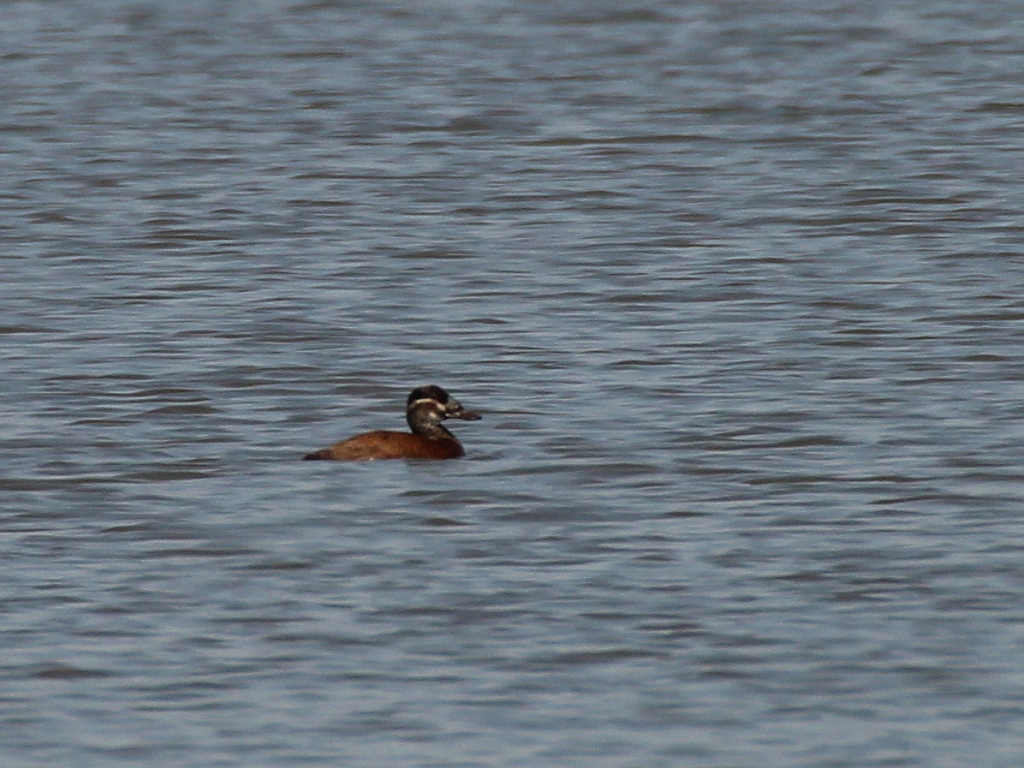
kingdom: Animalia
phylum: Chordata
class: Aves
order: Anseriformes
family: Anatidae
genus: Oxyura
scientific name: Oxyura leucocephala
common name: White-headed duck
